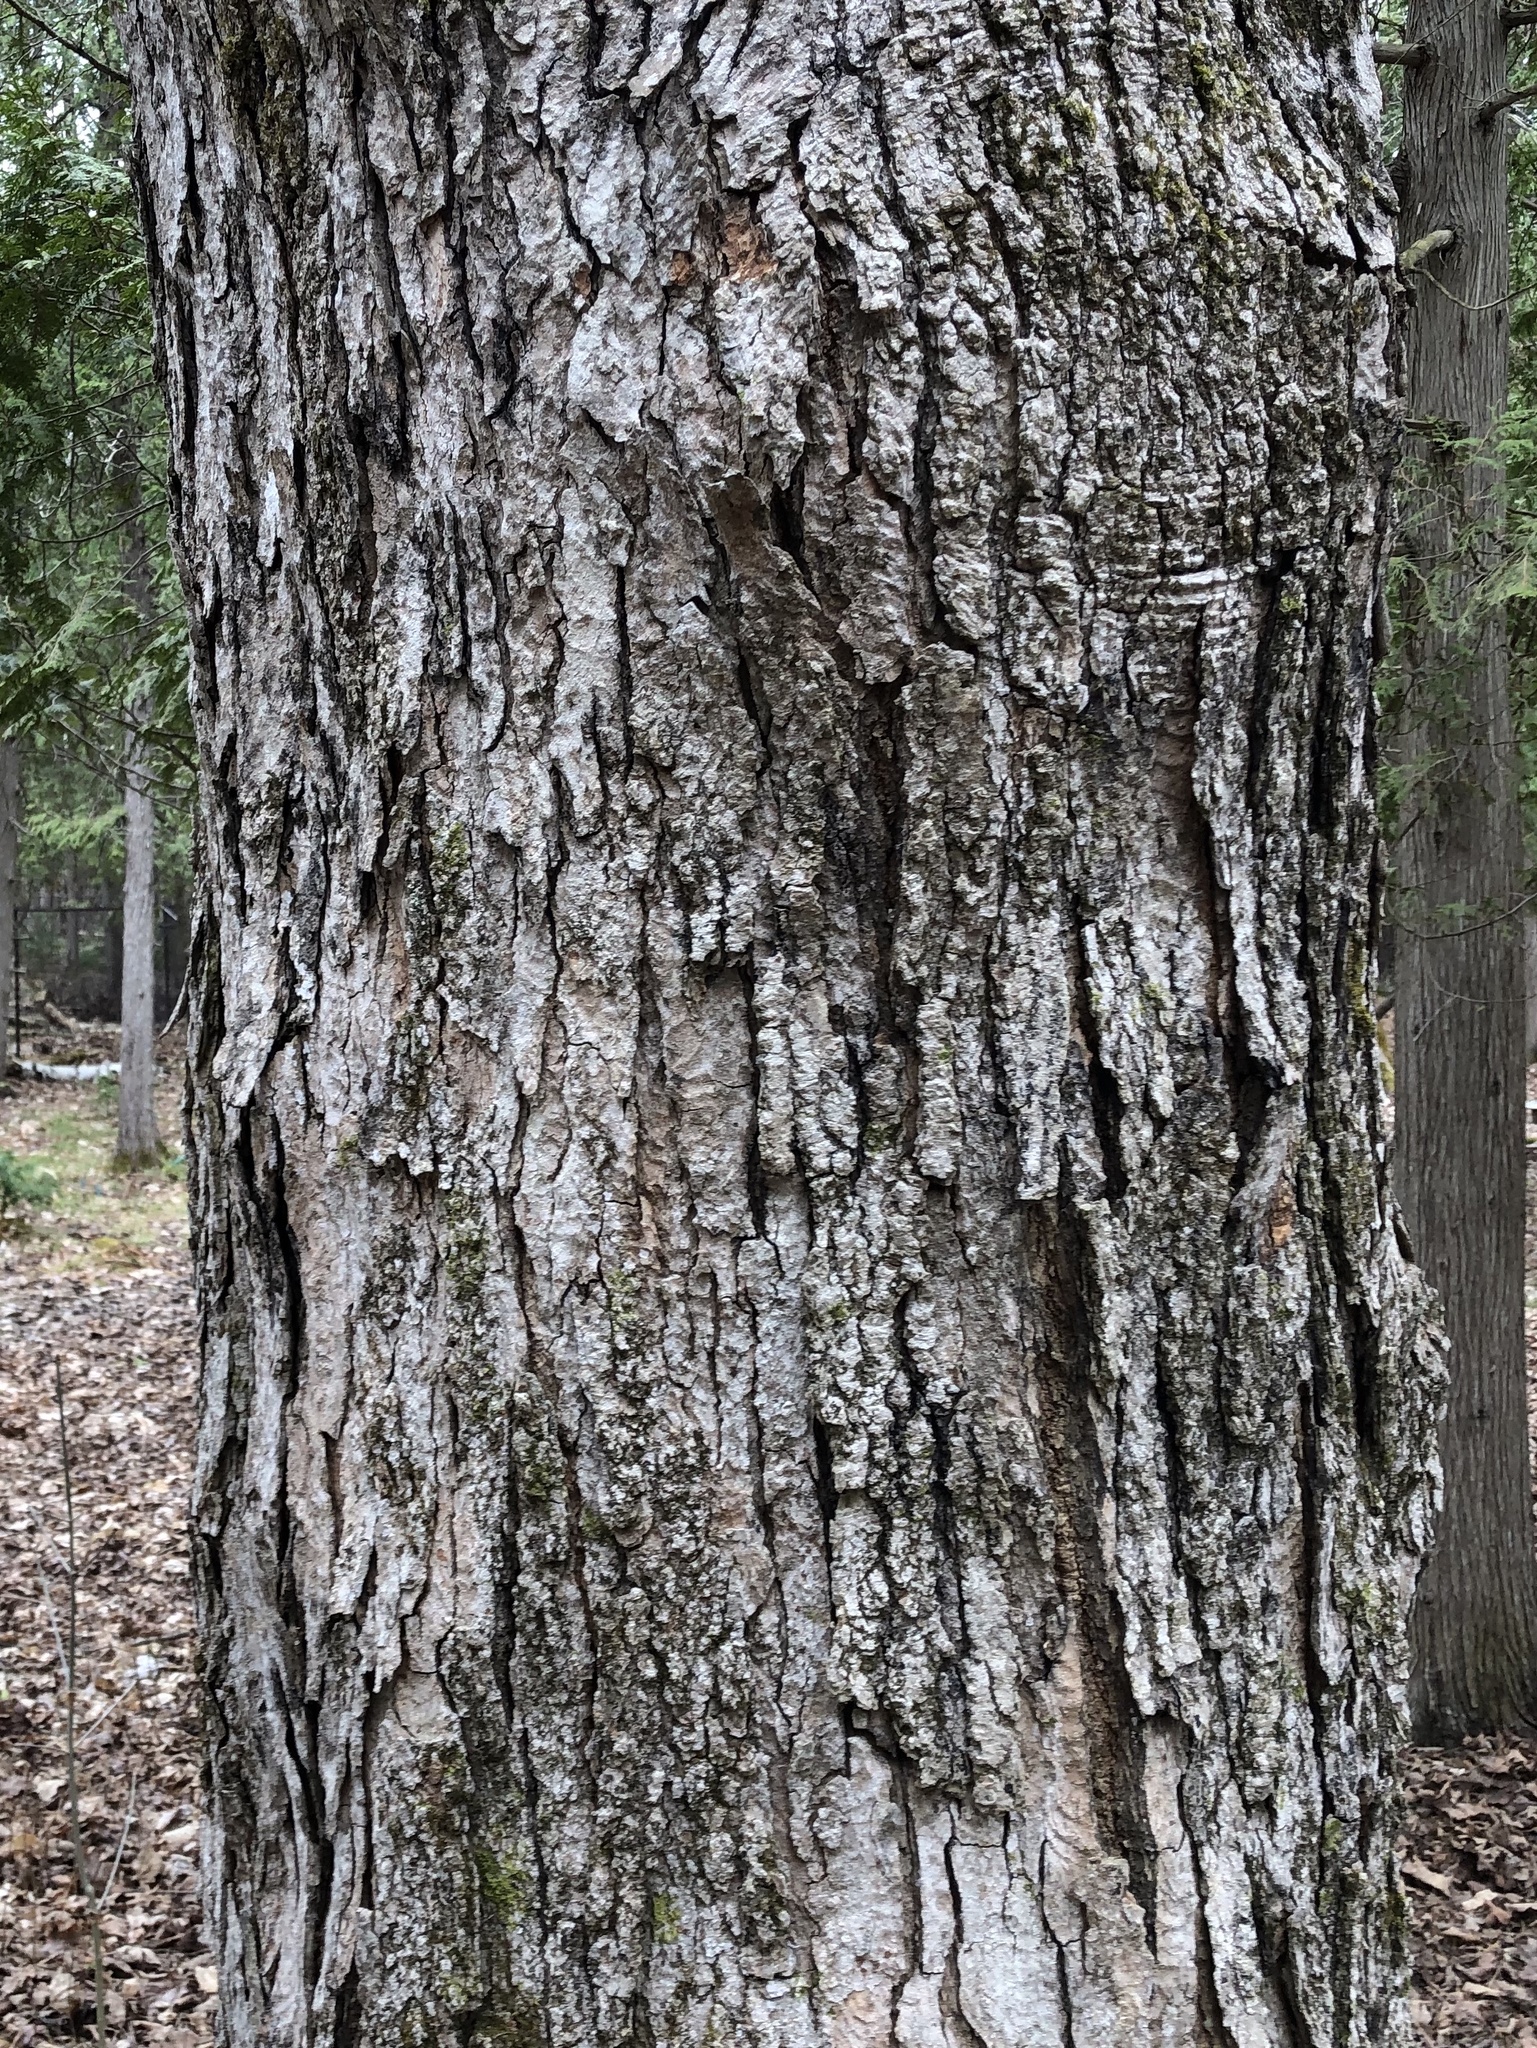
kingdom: Plantae
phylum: Tracheophyta
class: Magnoliopsida
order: Sapindales
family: Sapindaceae
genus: Acer
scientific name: Acer saccharum
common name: Sugar maple
